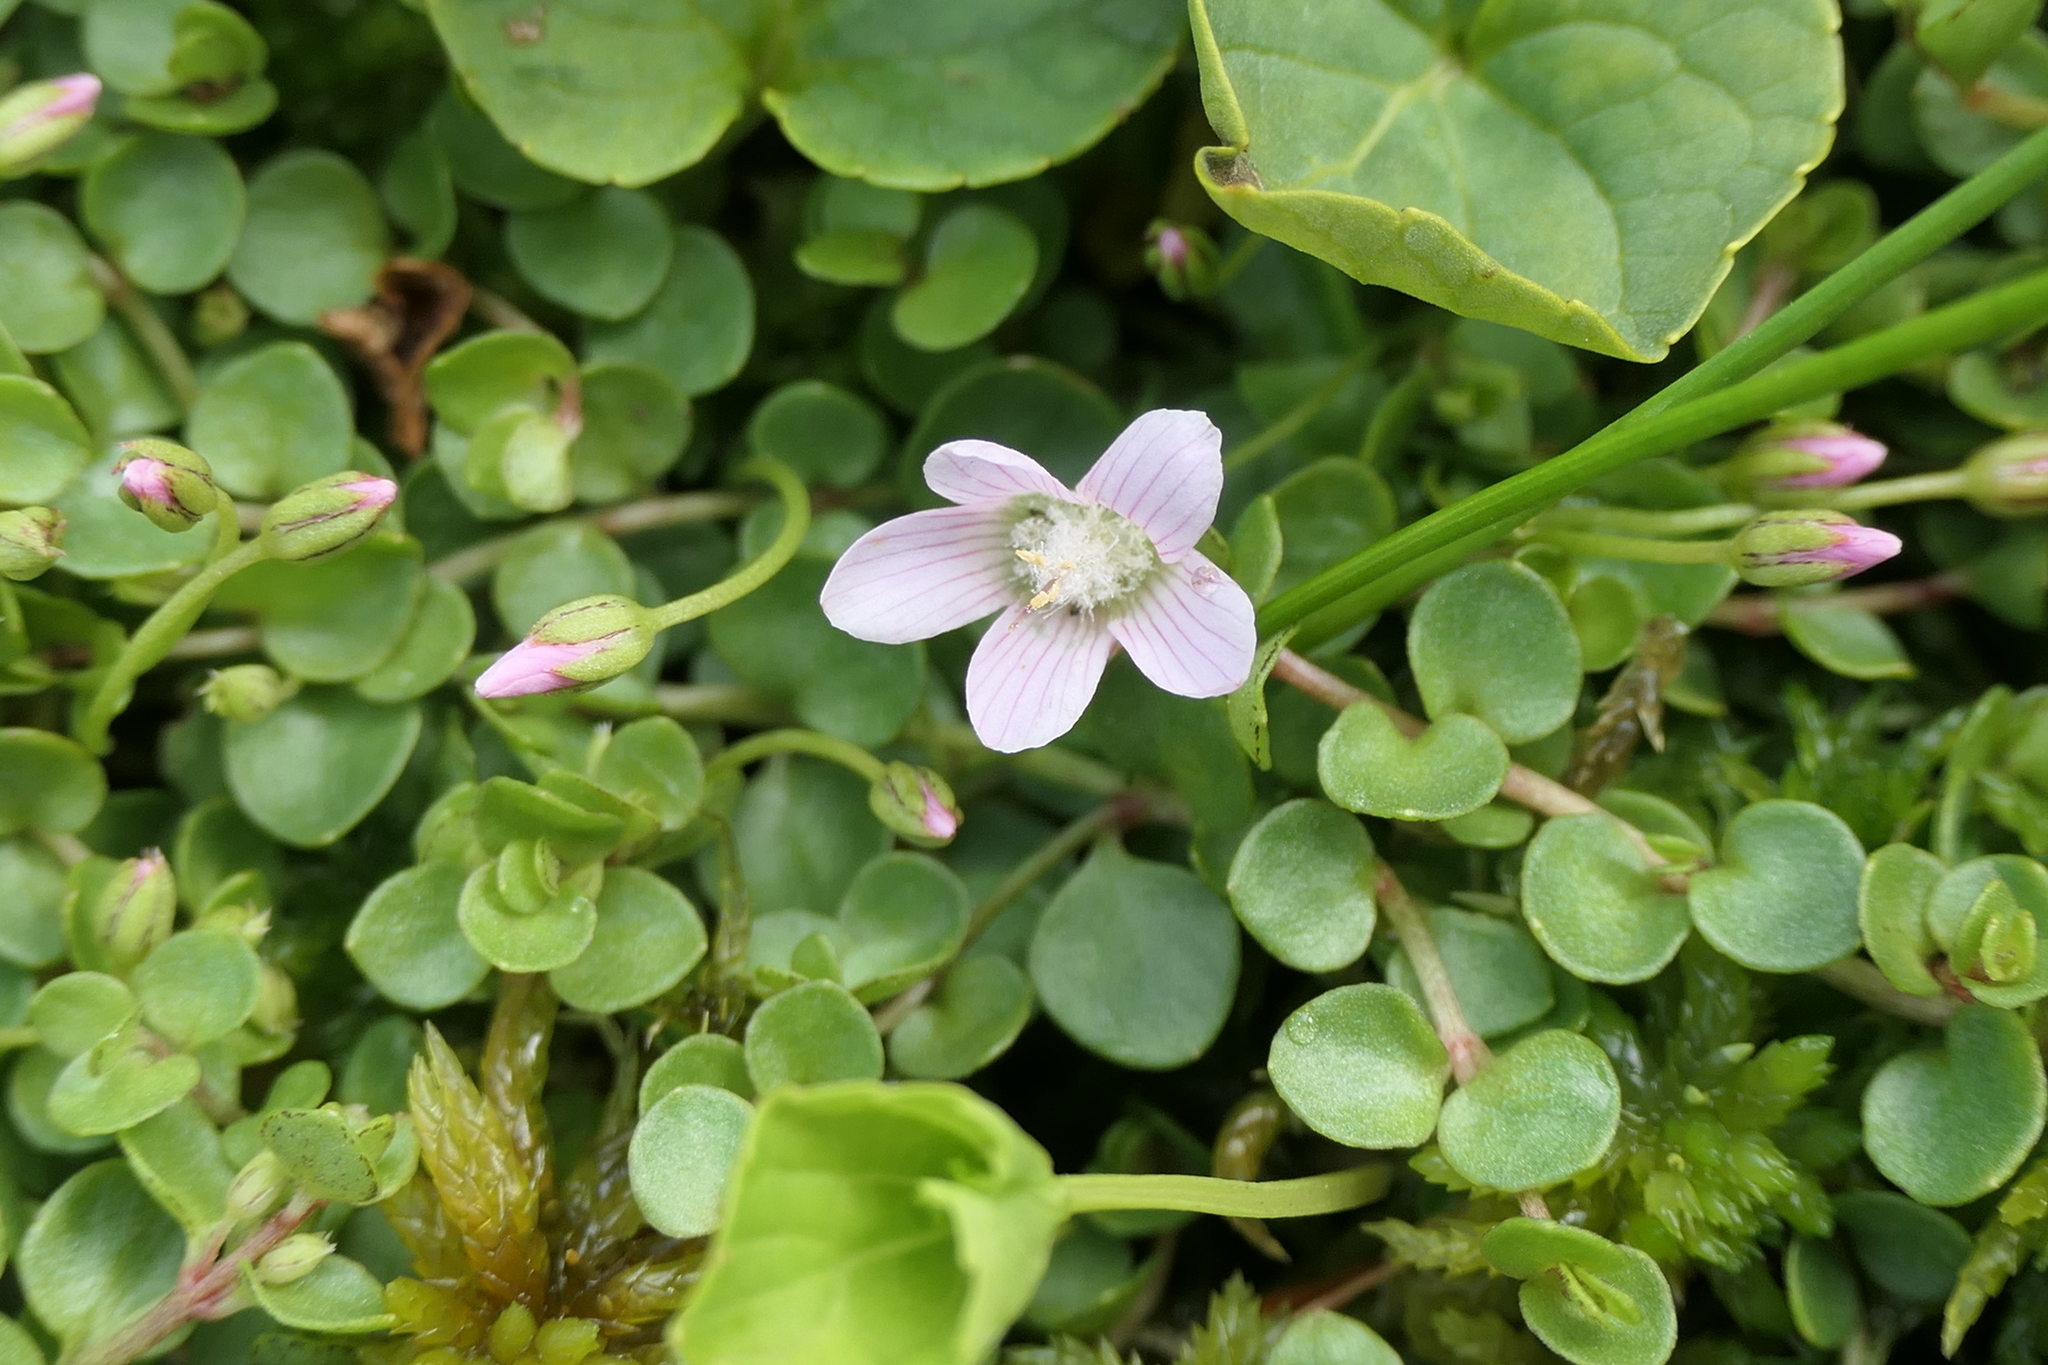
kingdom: Plantae
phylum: Tracheophyta
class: Magnoliopsida
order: Ericales
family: Primulaceae
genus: Lysimachia
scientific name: Lysimachia tenella
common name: European bog pimpernel
